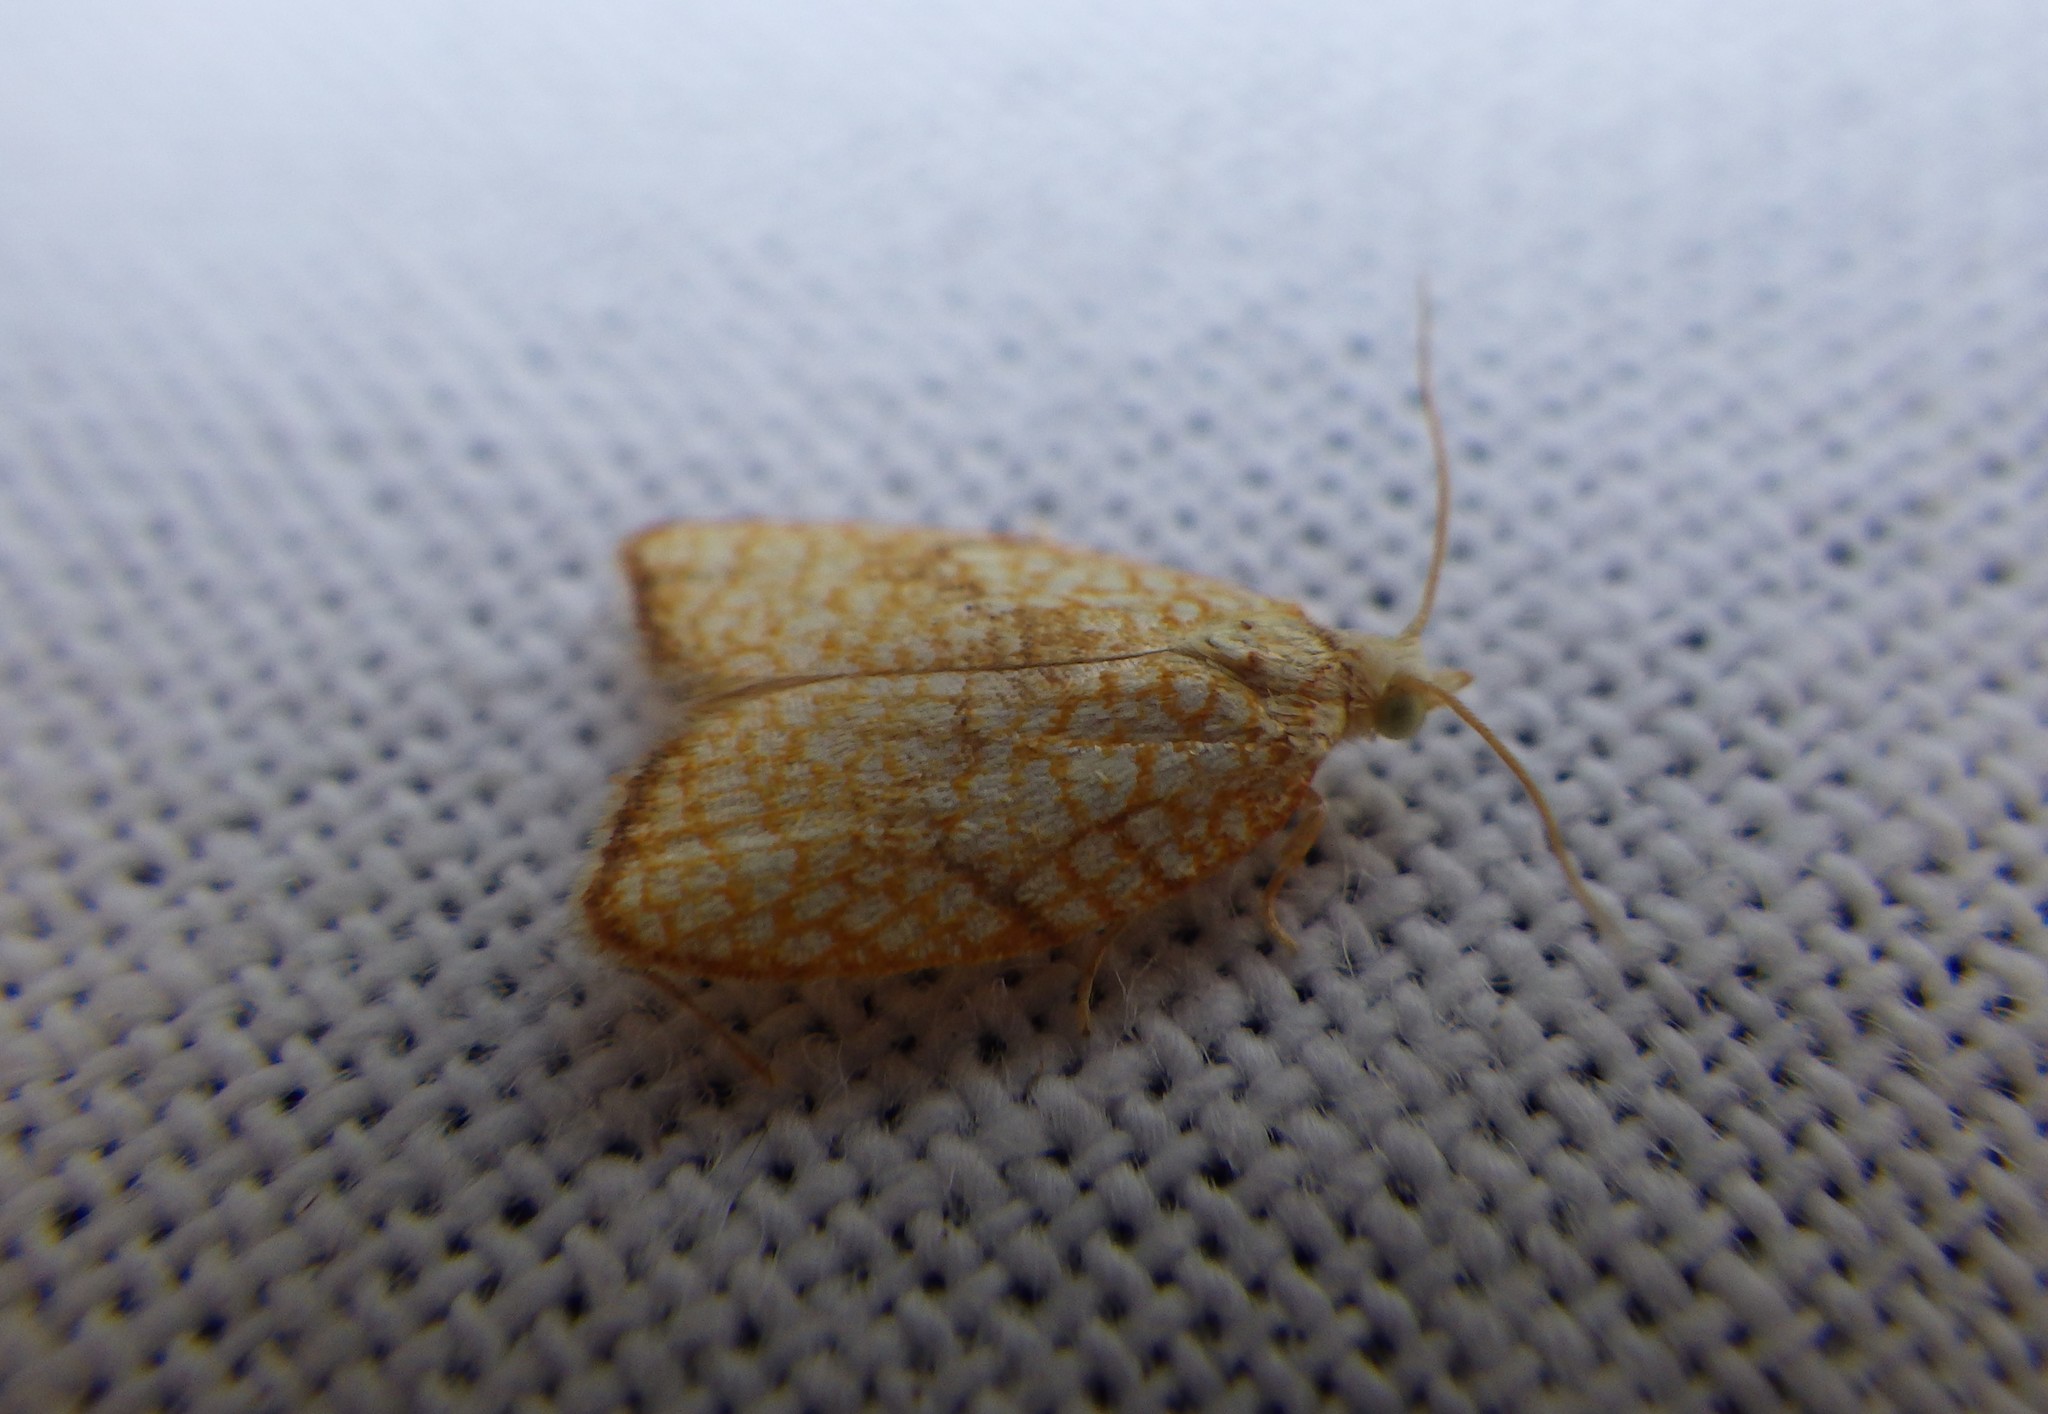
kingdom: Animalia
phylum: Arthropoda
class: Insecta
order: Lepidoptera
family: Tortricidae
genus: Acleris
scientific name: Acleris forsskaleana
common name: Maple button
